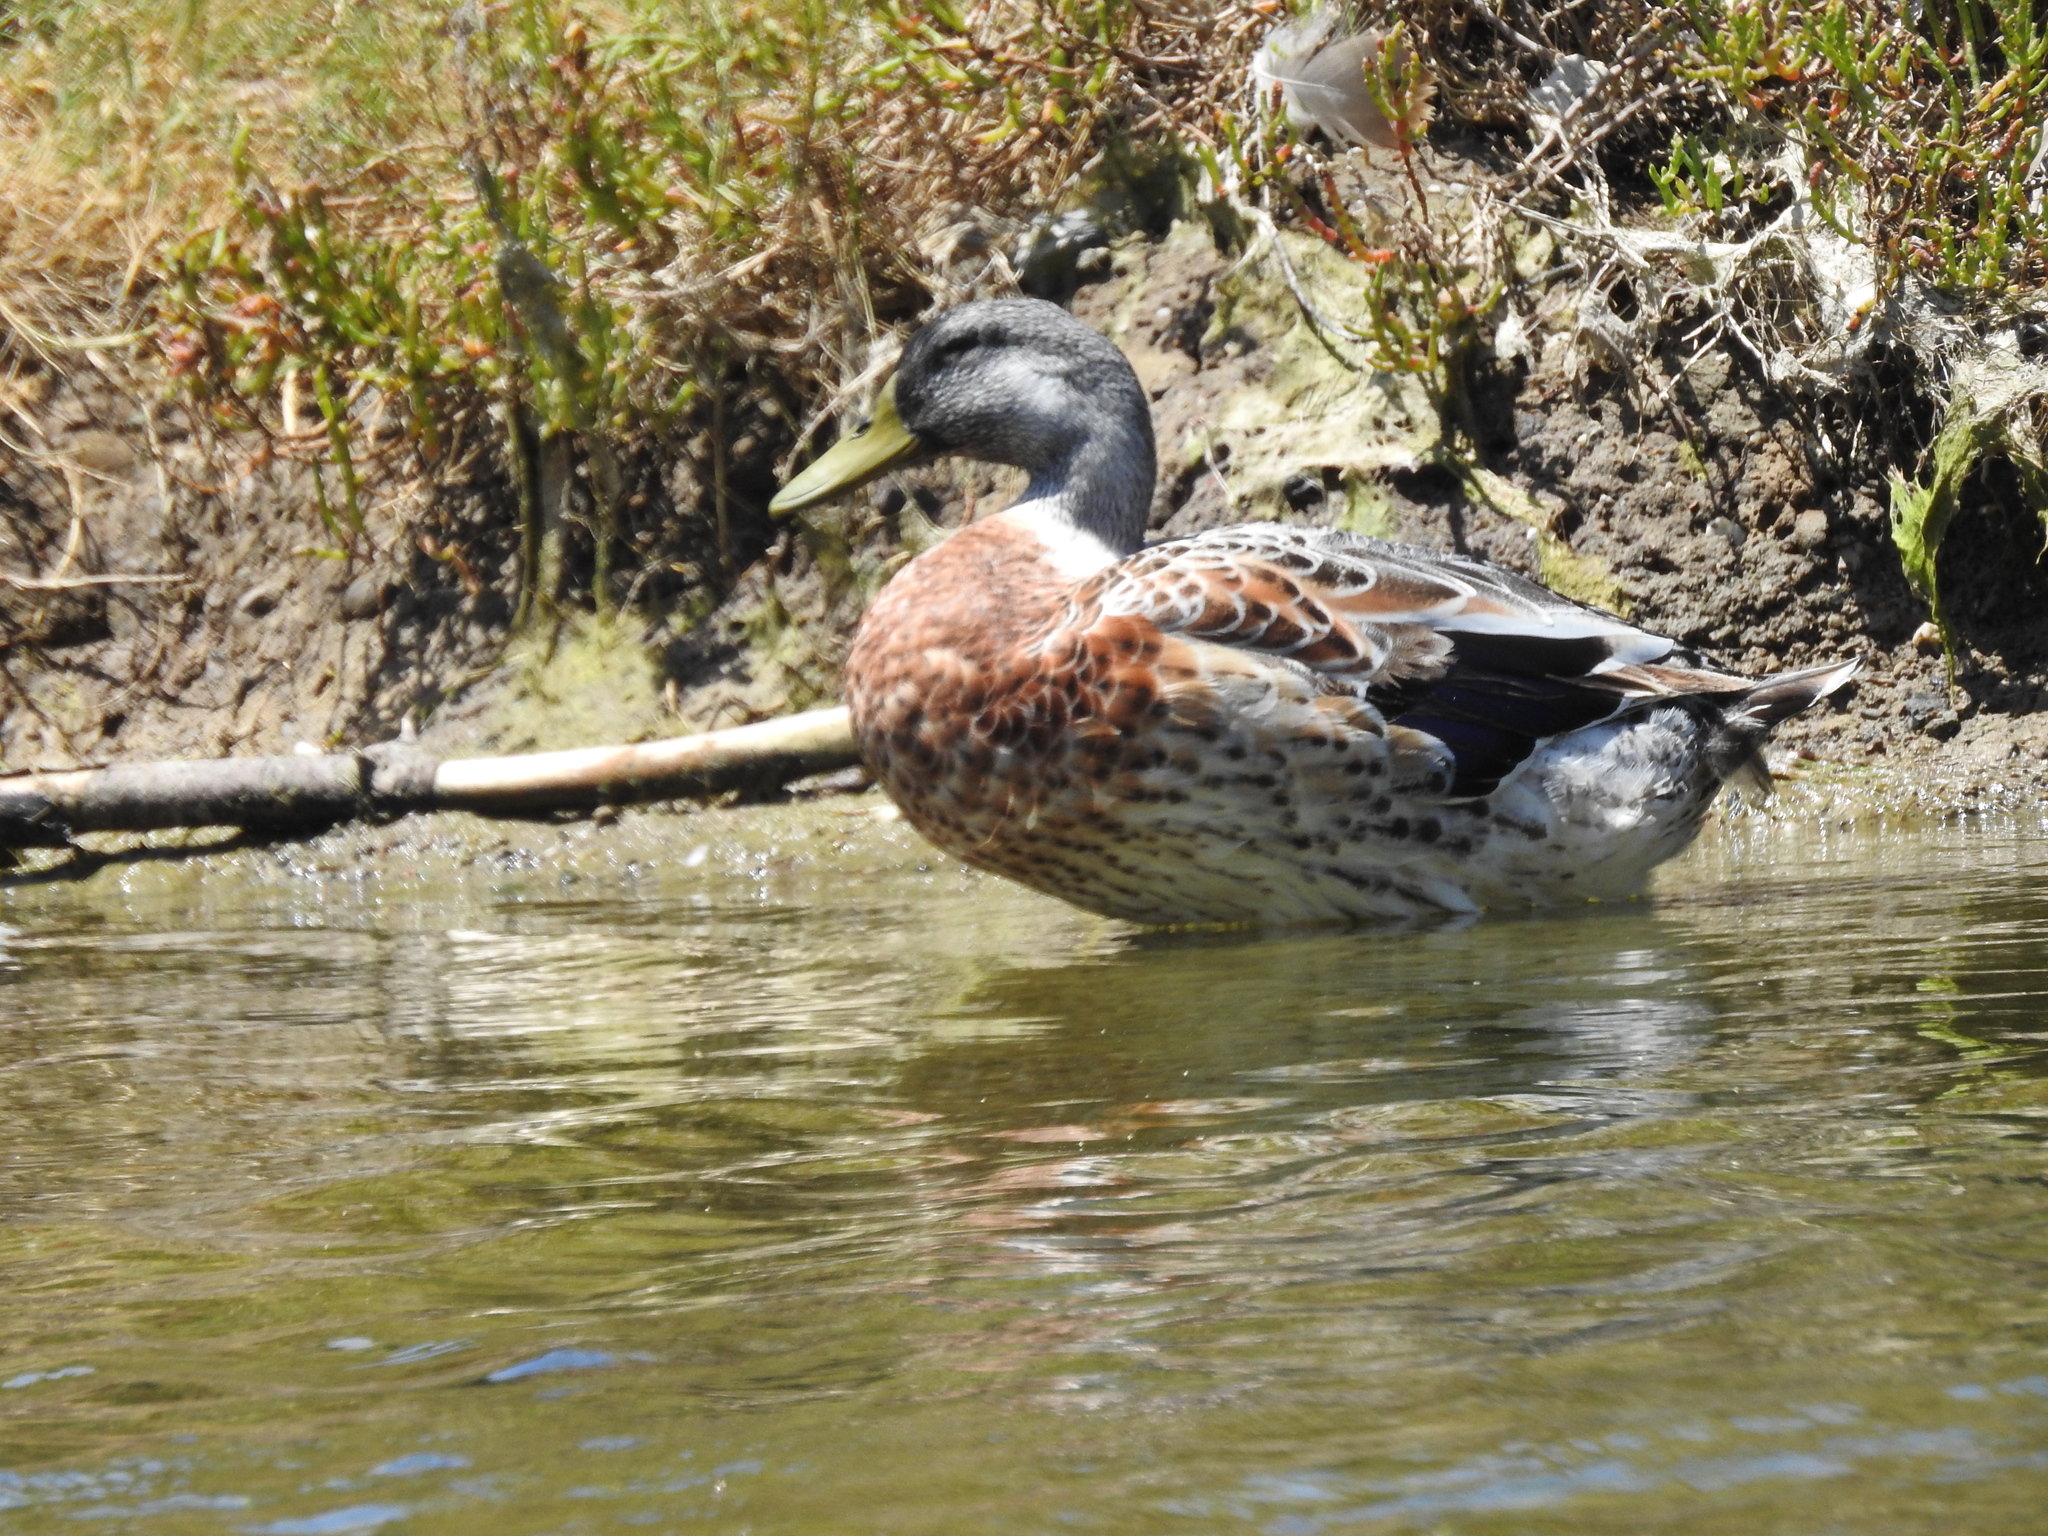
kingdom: Animalia
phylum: Chordata
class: Aves
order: Anseriformes
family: Anatidae
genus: Anas
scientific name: Anas platyrhynchos
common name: Mallard
